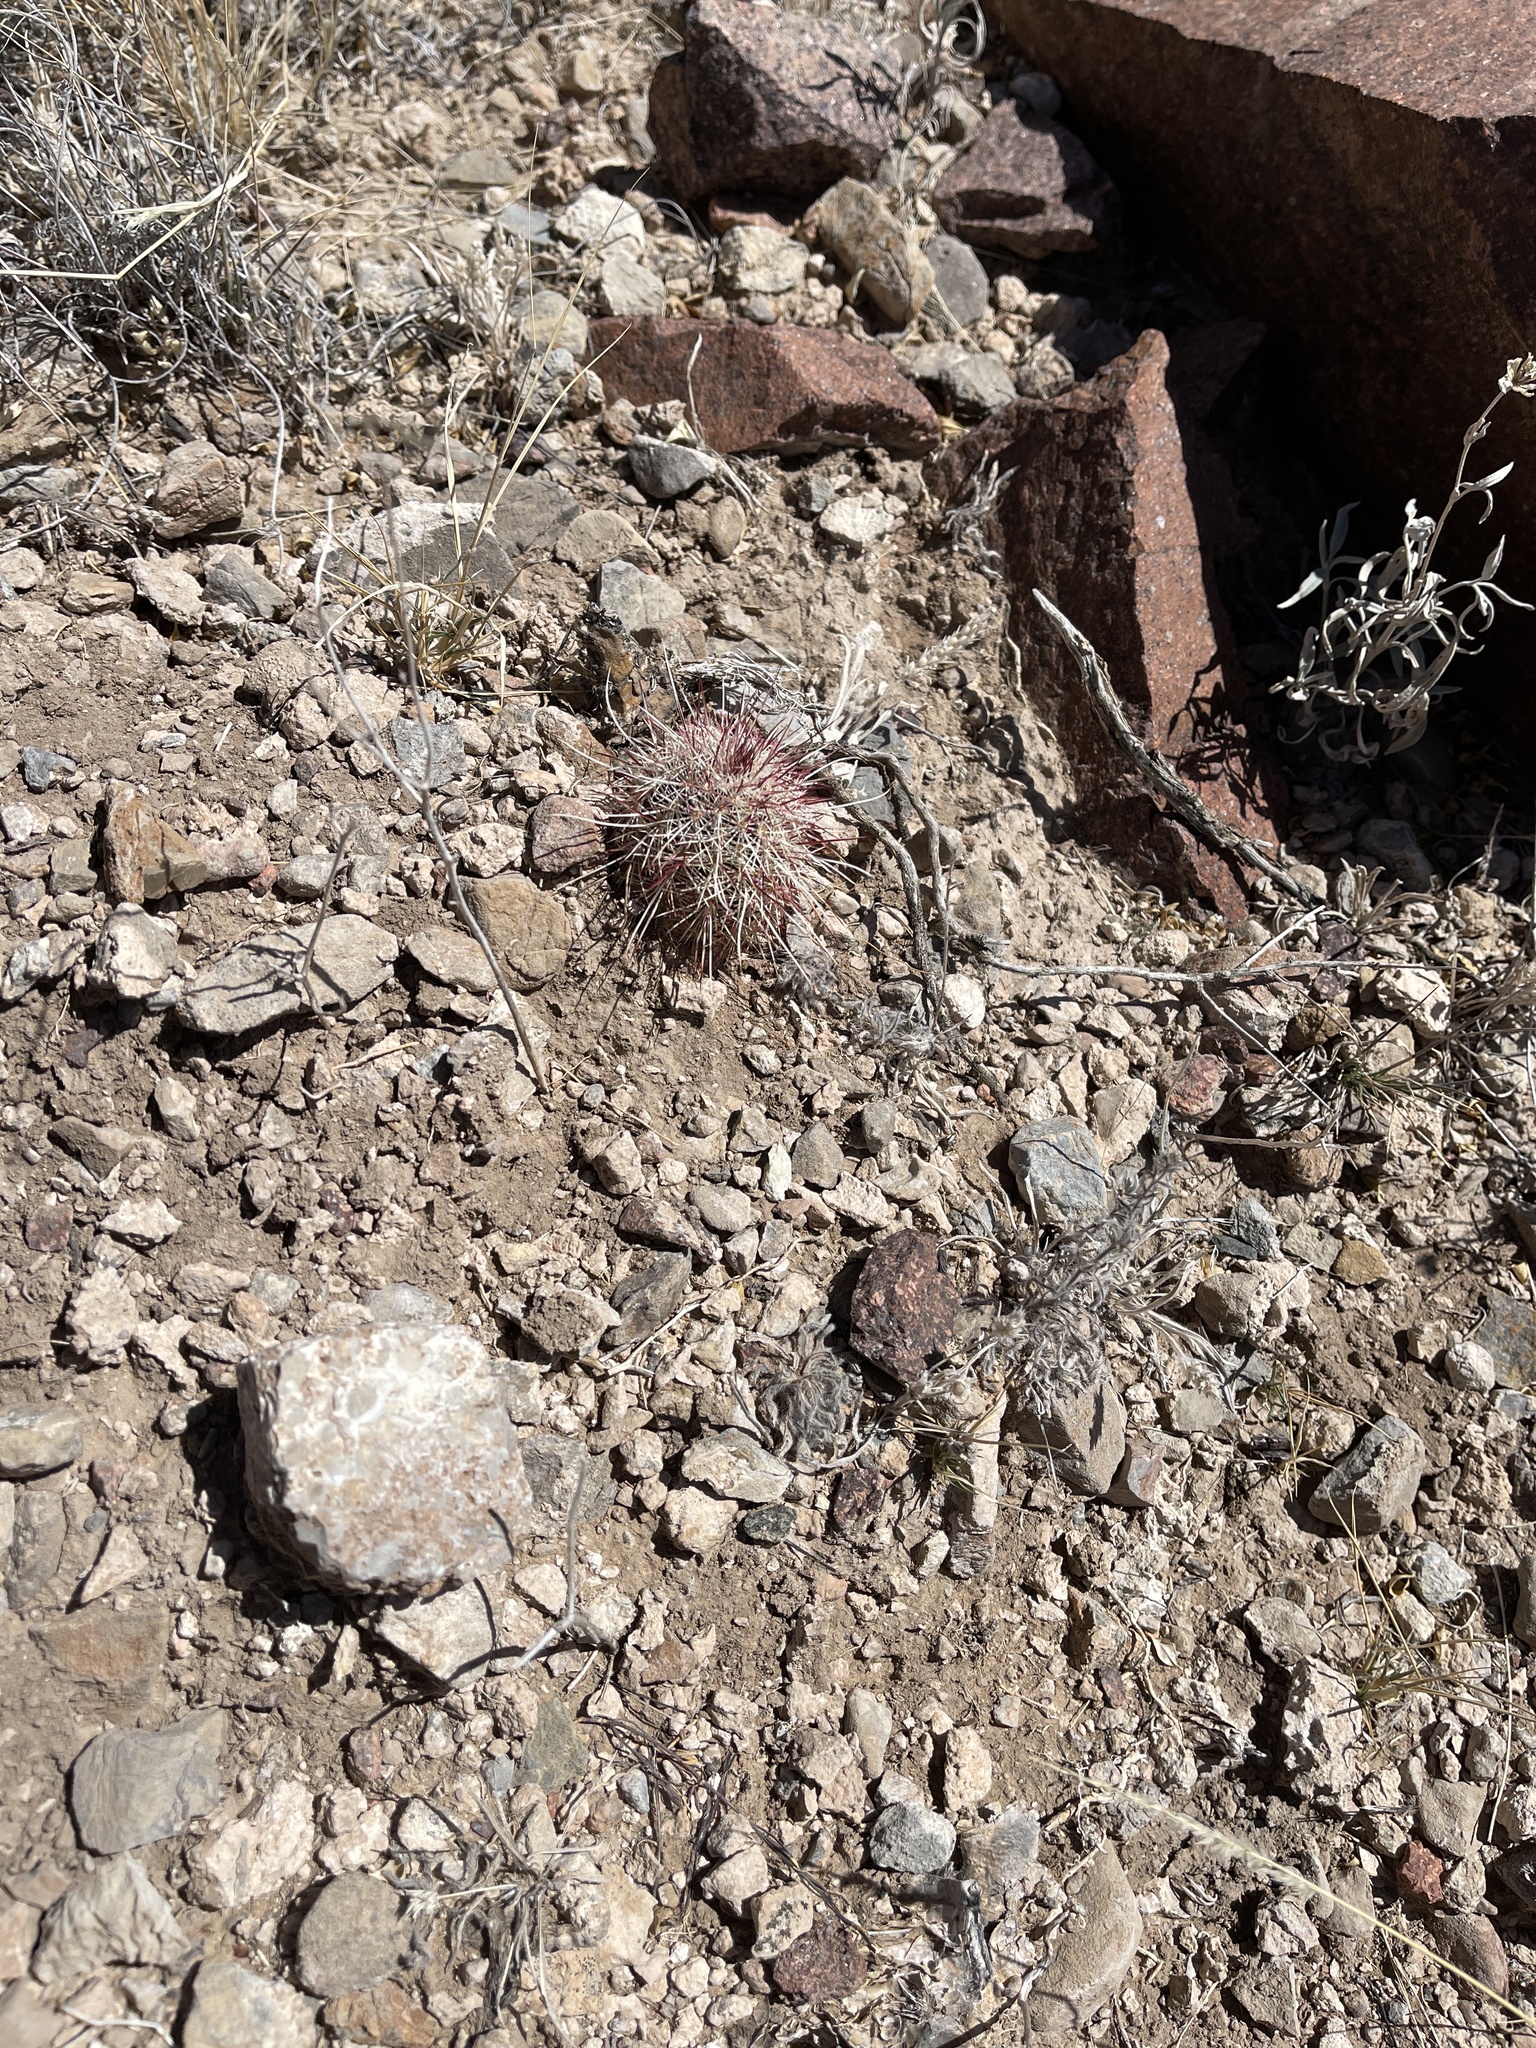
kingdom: Plantae
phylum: Tracheophyta
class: Magnoliopsida
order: Caryophyllales
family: Cactaceae
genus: Echinocereus
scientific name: Echinocereus viridiflorus
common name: Nylon hedgehog cactus
